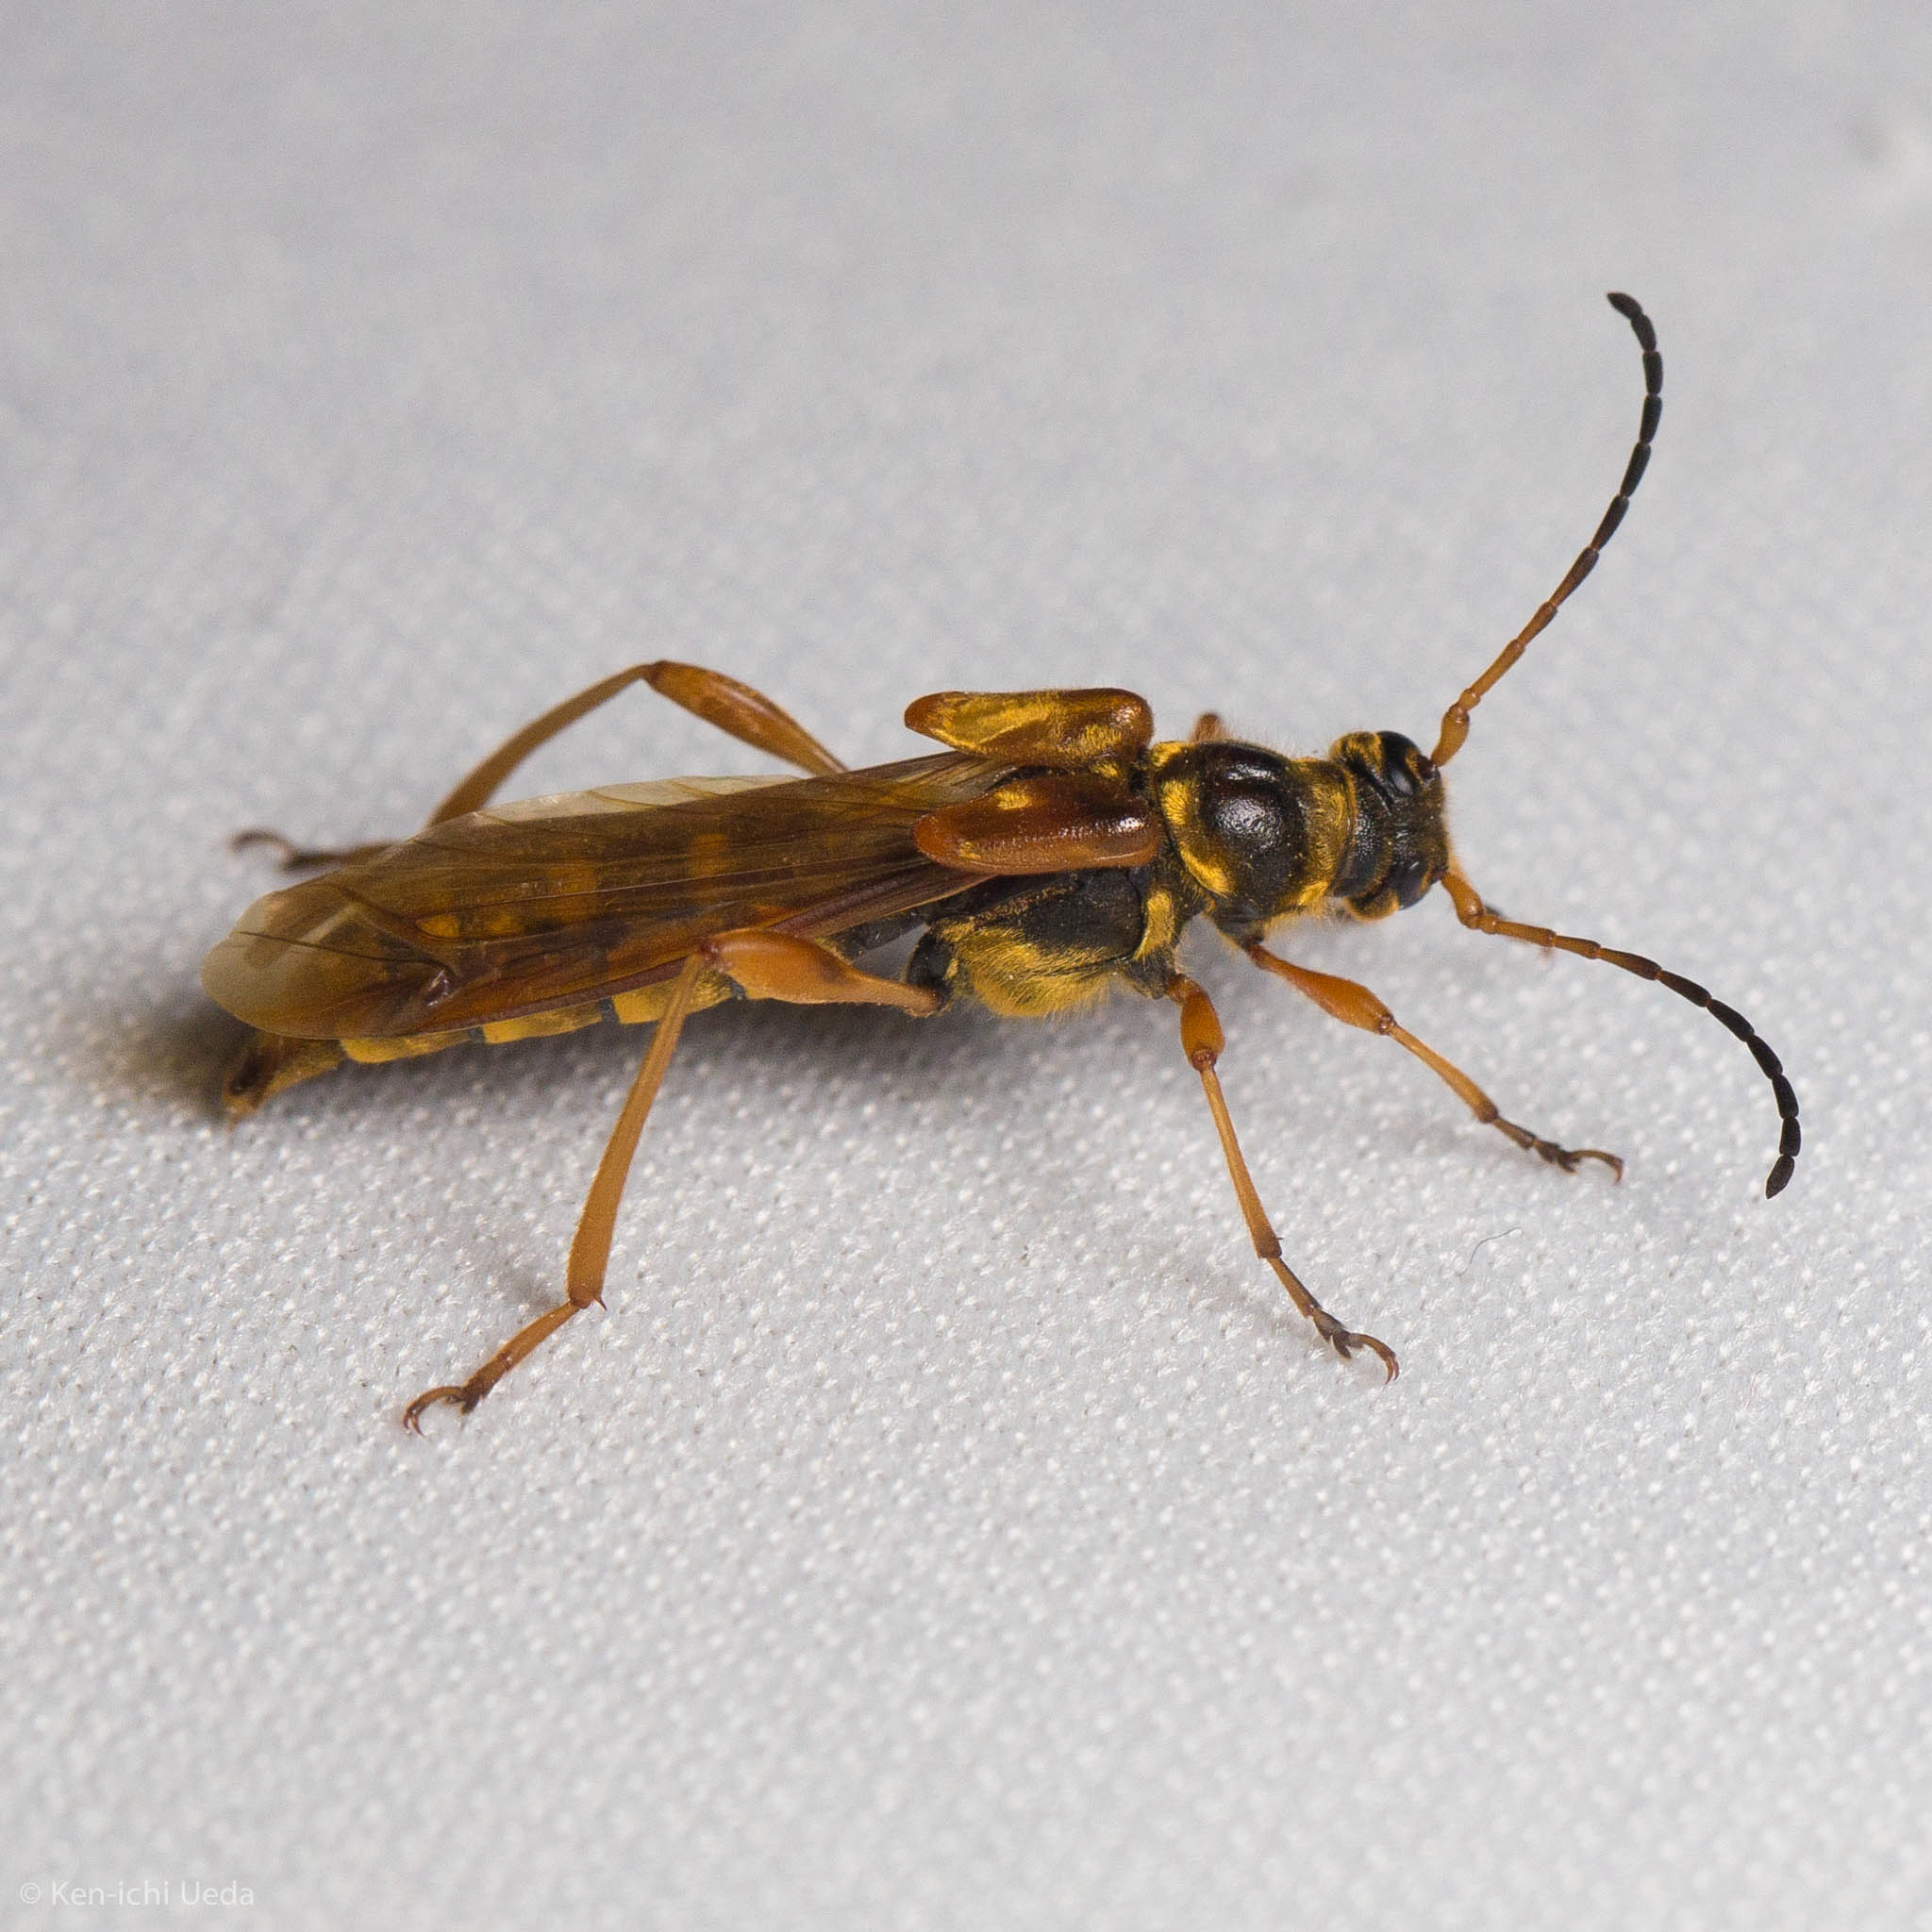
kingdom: Animalia
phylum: Arthropoda
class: Insecta
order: Coleoptera
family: Cerambycidae
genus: Necydalis
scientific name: Necydalis cavipennis
